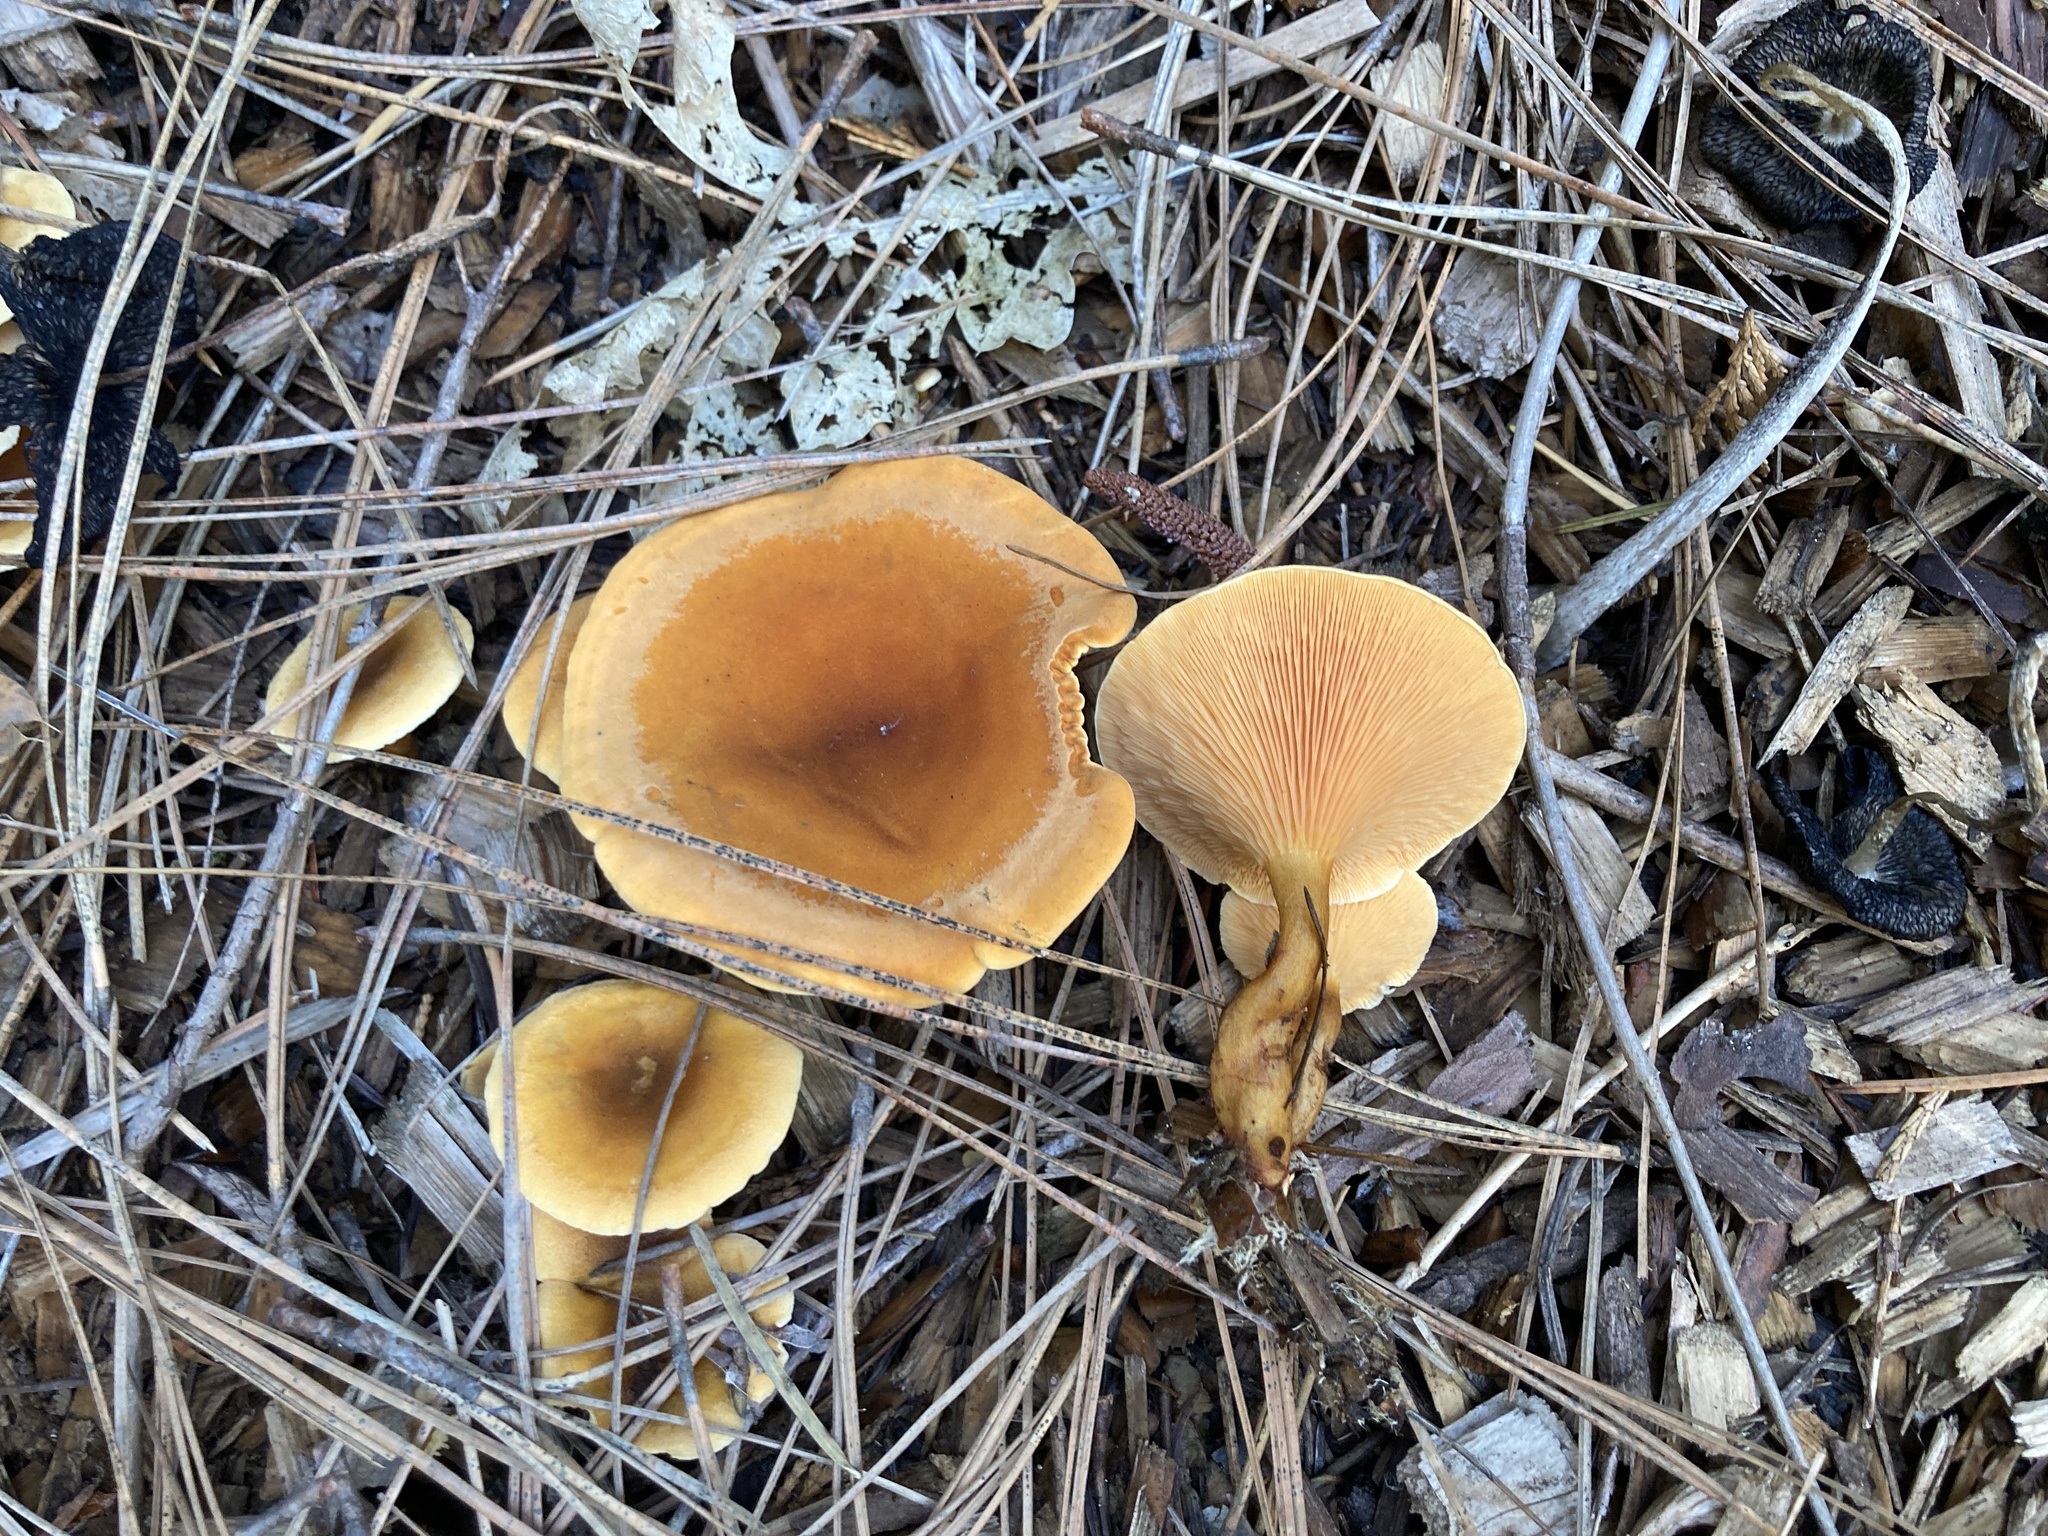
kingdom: Fungi
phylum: Basidiomycota
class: Agaricomycetes
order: Boletales
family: Hygrophoropsidaceae
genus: Hygrophoropsis
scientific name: Hygrophoropsis aurantiaca
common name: False chanterelle
